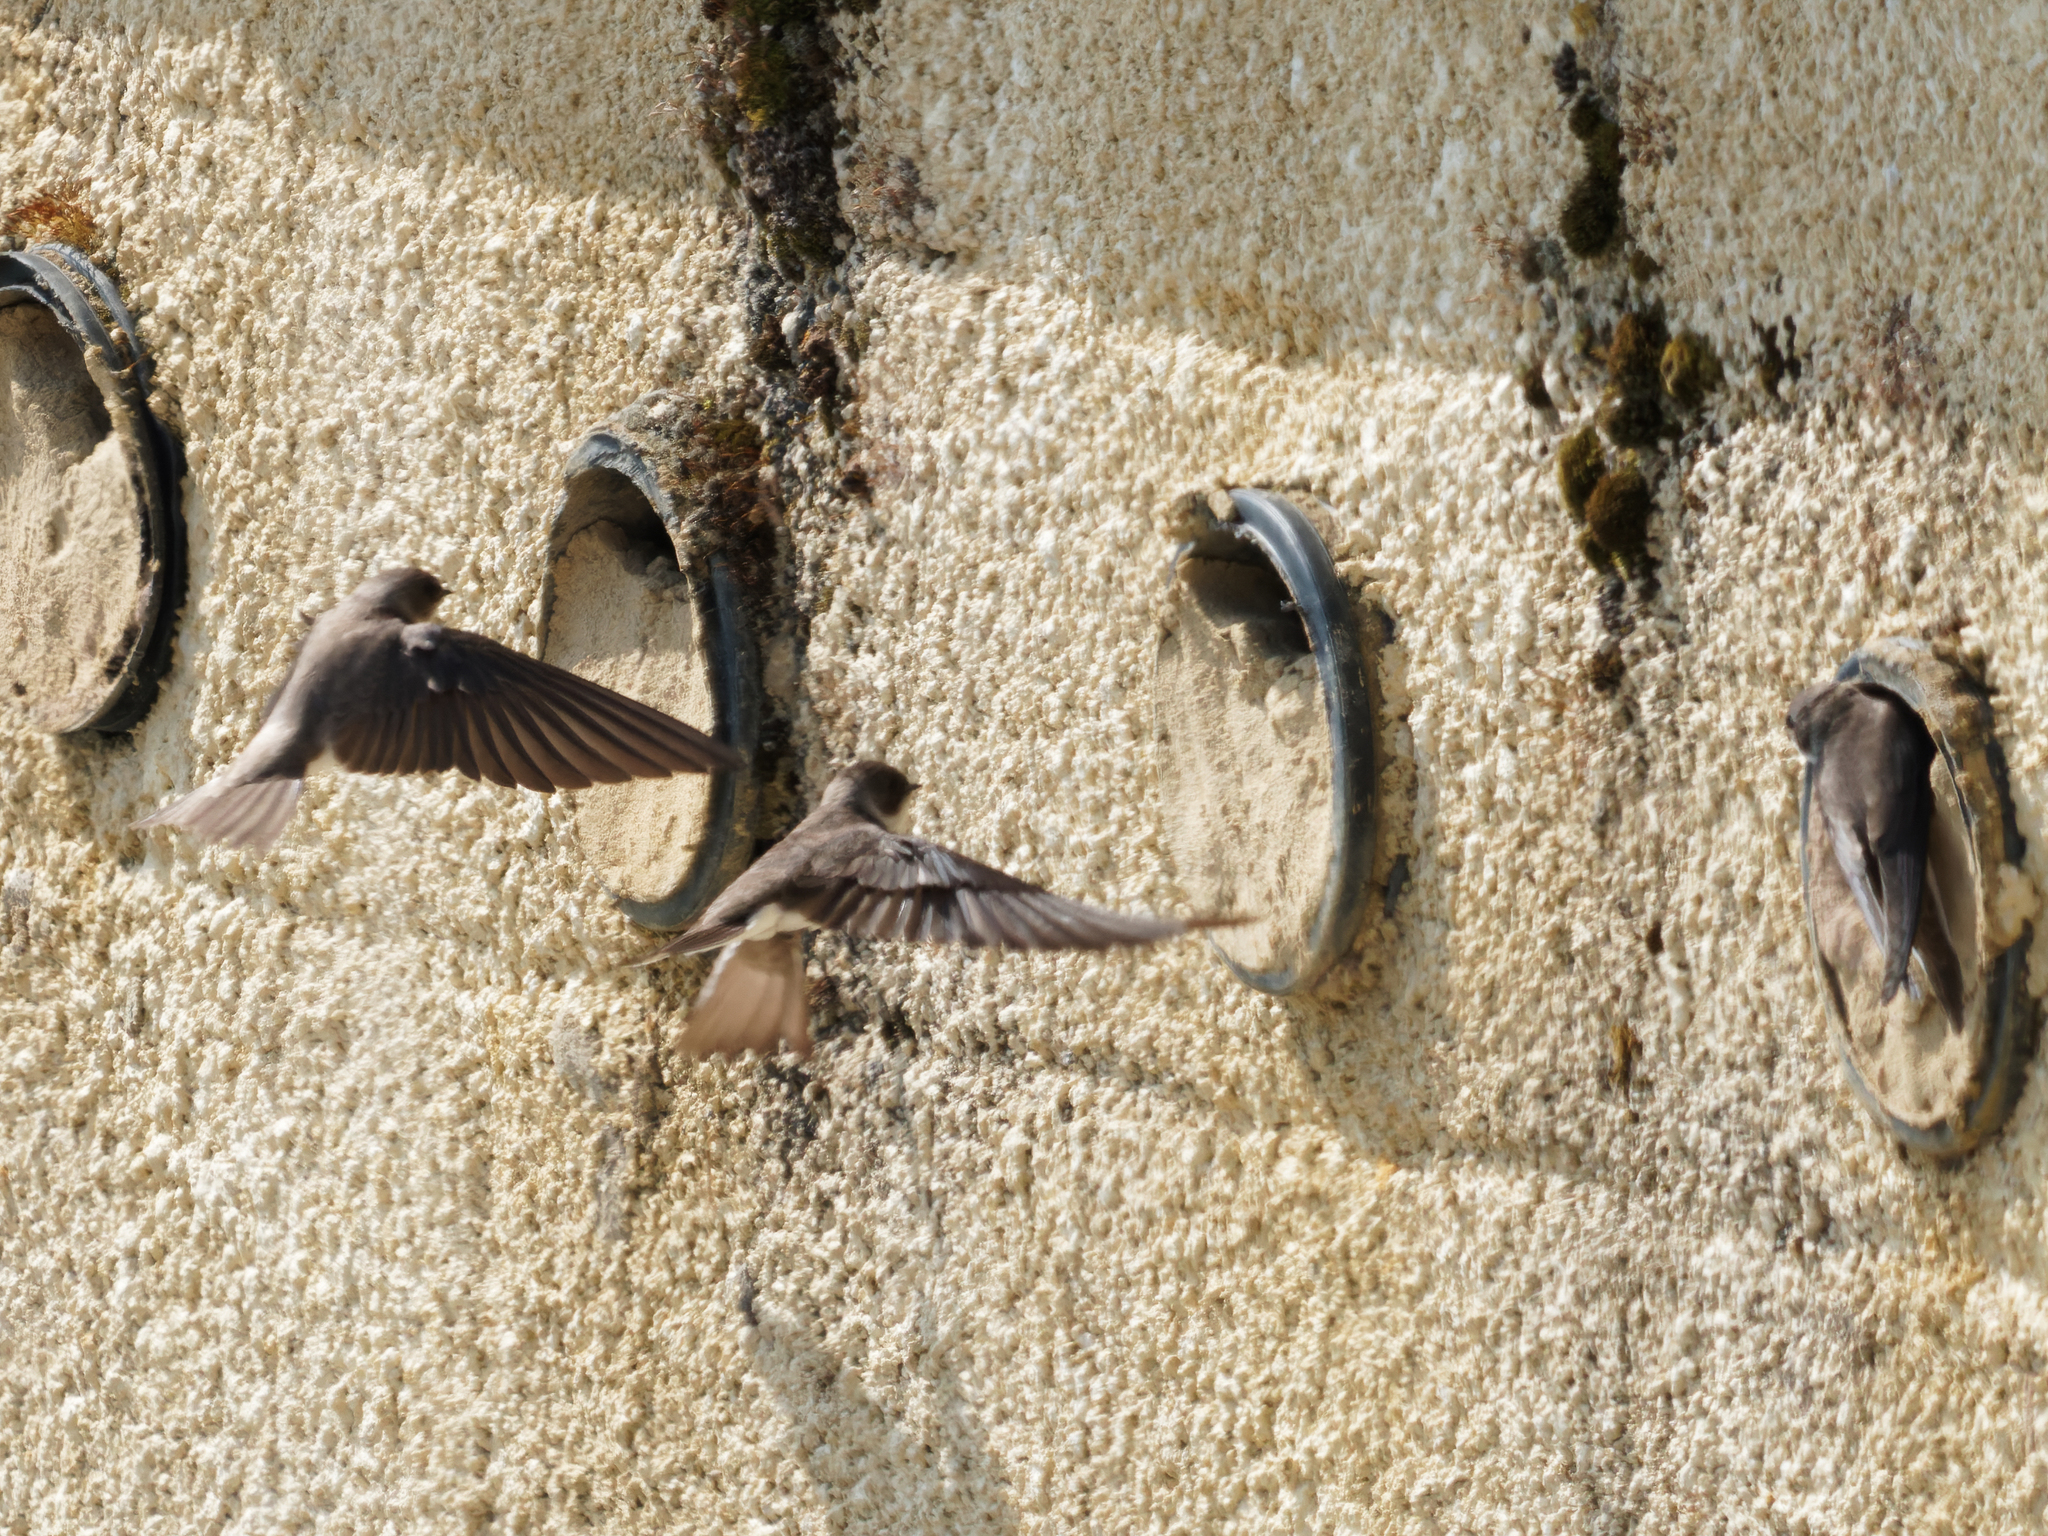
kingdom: Animalia
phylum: Chordata
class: Aves
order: Passeriformes
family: Hirundinidae
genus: Riparia
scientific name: Riparia riparia
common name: Sand martin
